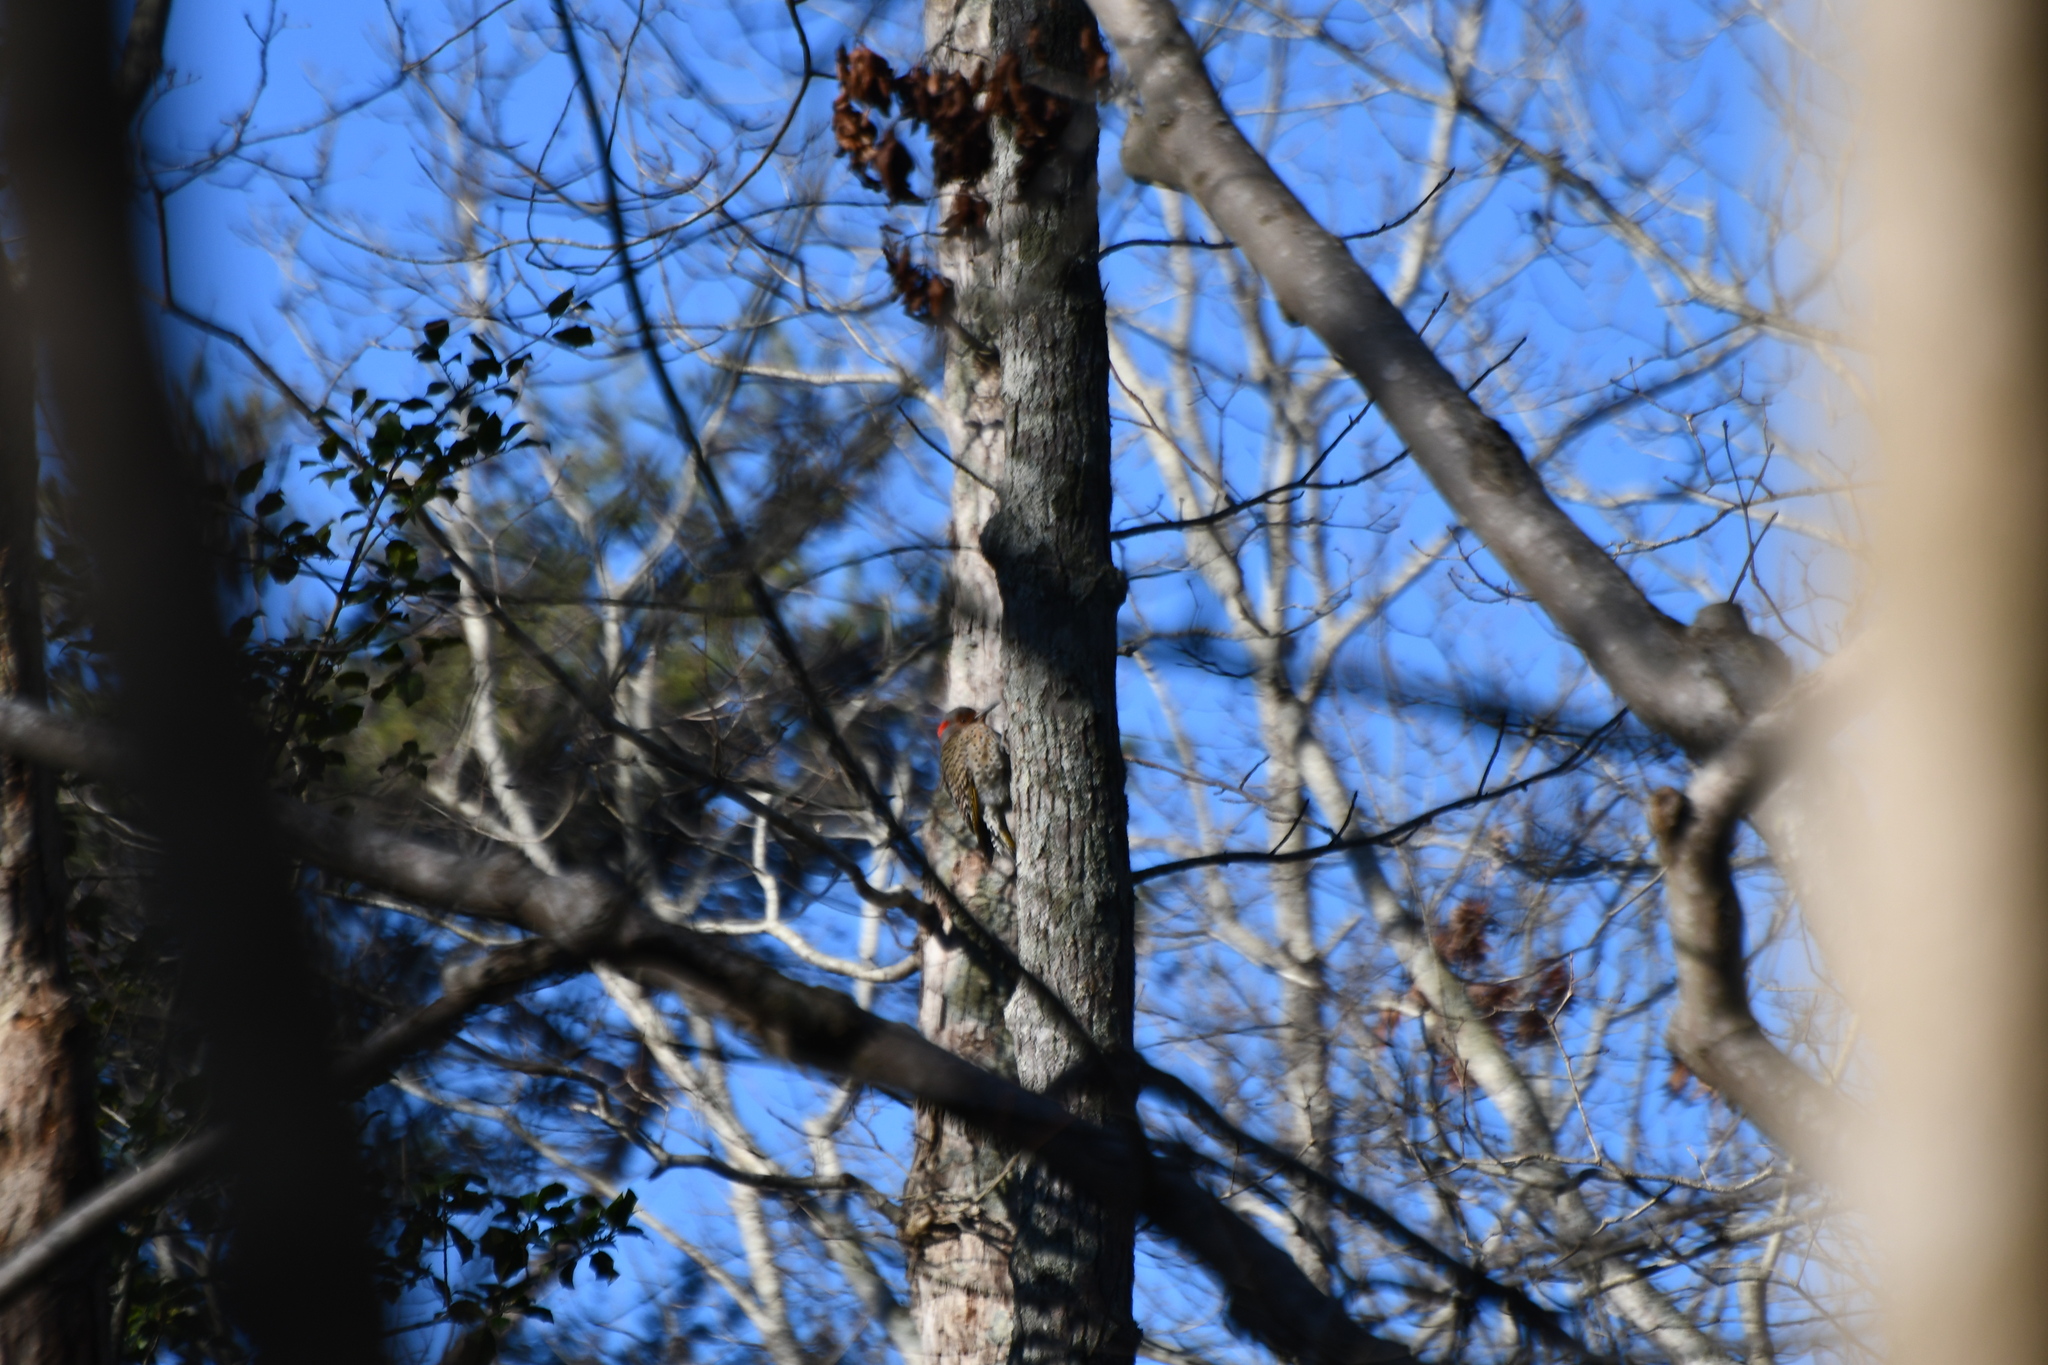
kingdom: Animalia
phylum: Chordata
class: Aves
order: Piciformes
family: Picidae
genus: Colaptes
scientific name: Colaptes auratus
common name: Northern flicker
